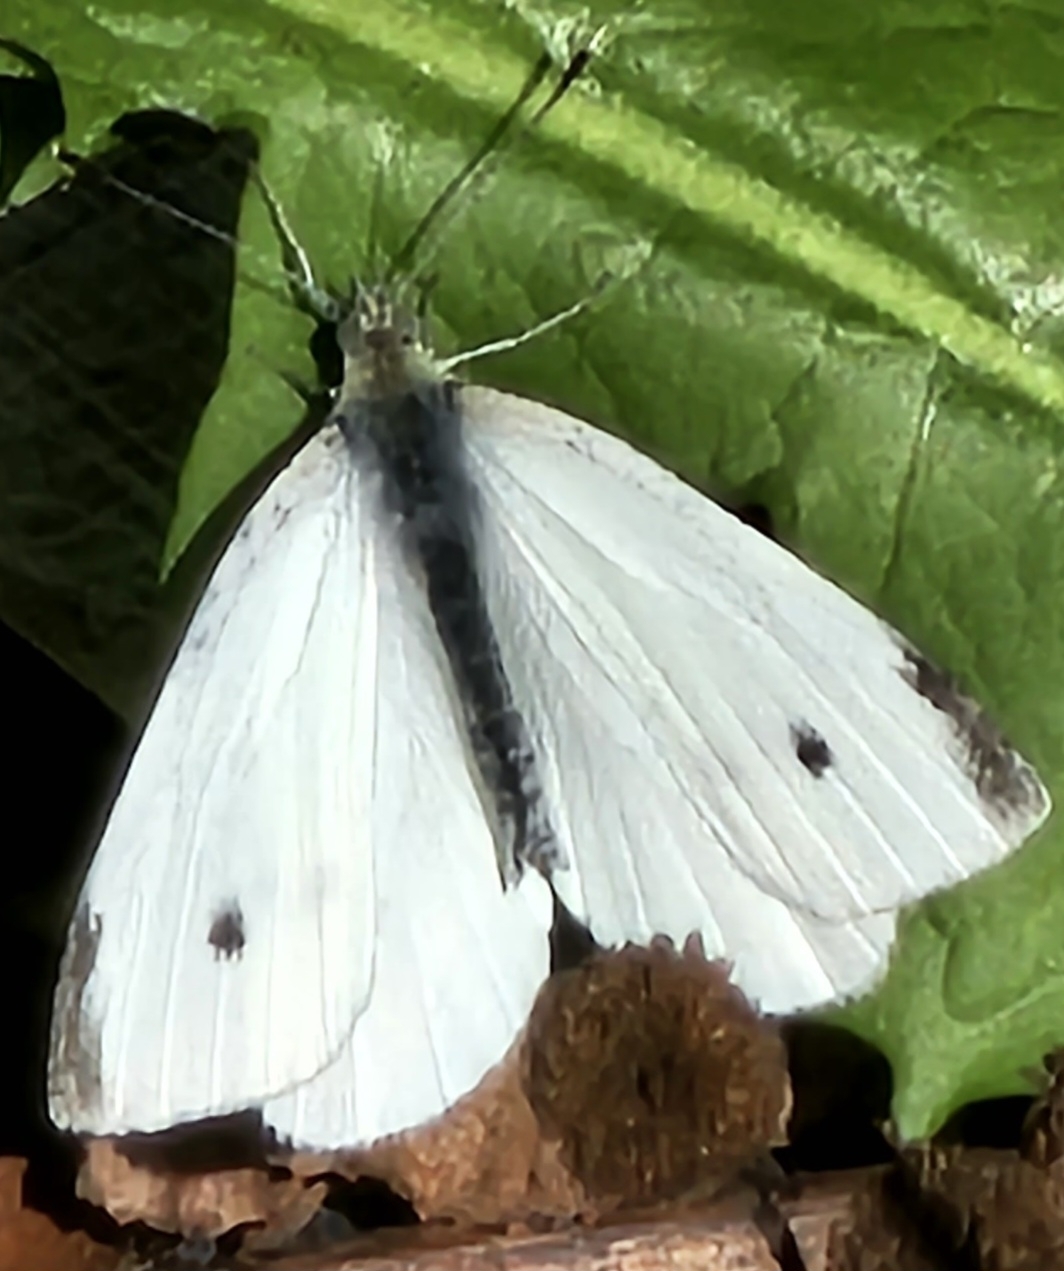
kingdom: Animalia
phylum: Arthropoda
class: Insecta
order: Lepidoptera
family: Pieridae
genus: Pieris
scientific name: Pieris rapae
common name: Small white
